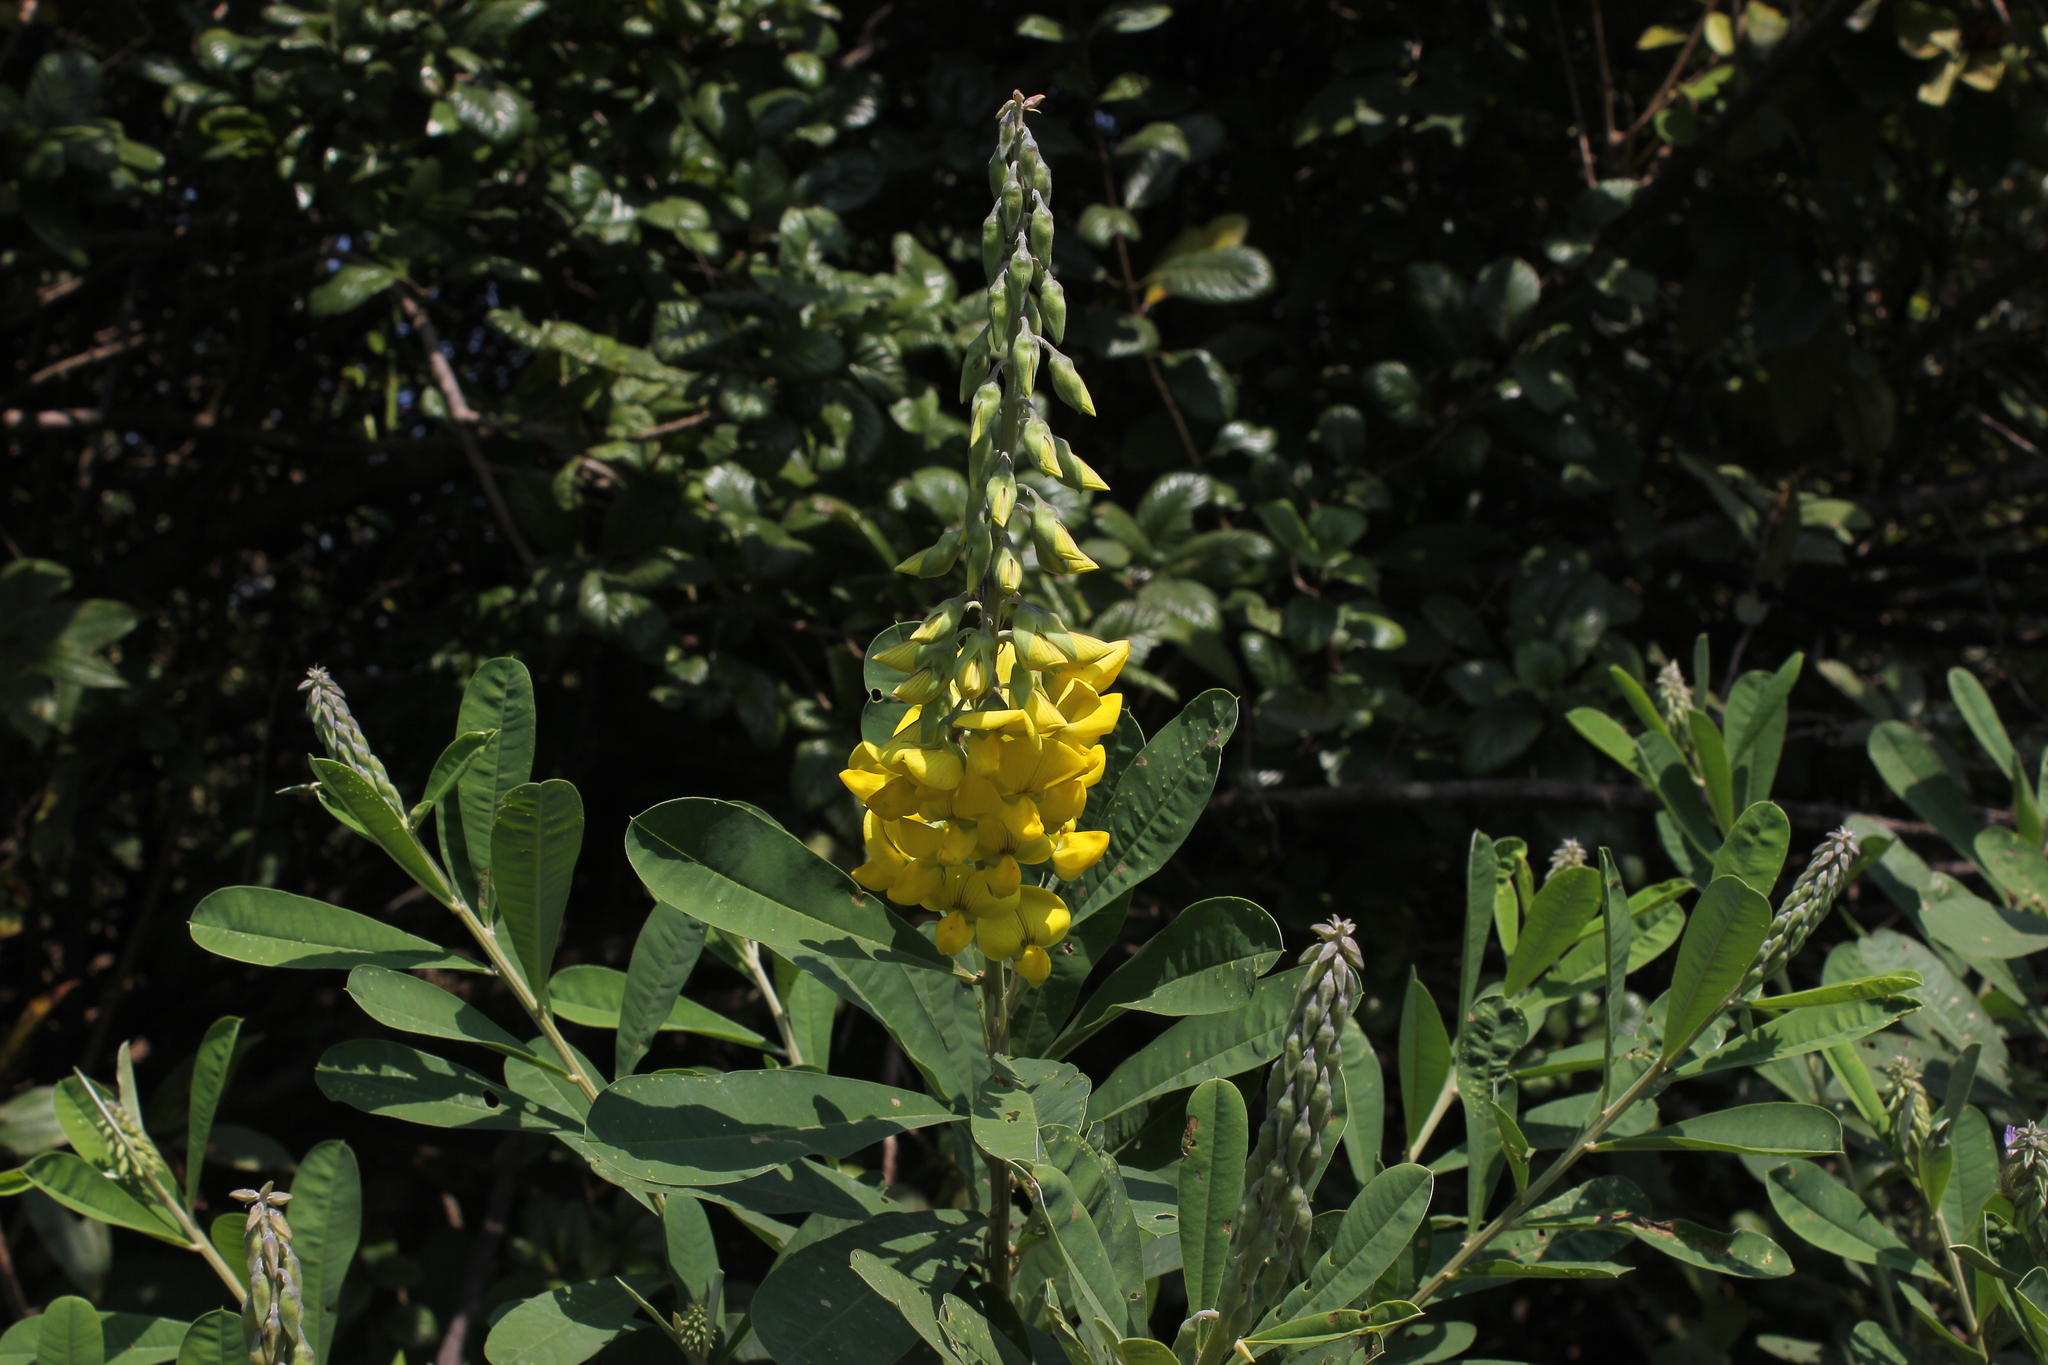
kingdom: Plantae
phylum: Tracheophyta
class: Magnoliopsida
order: Fabales
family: Fabaceae
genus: Crotalaria
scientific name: Crotalaria retusa
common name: Rattleweed
